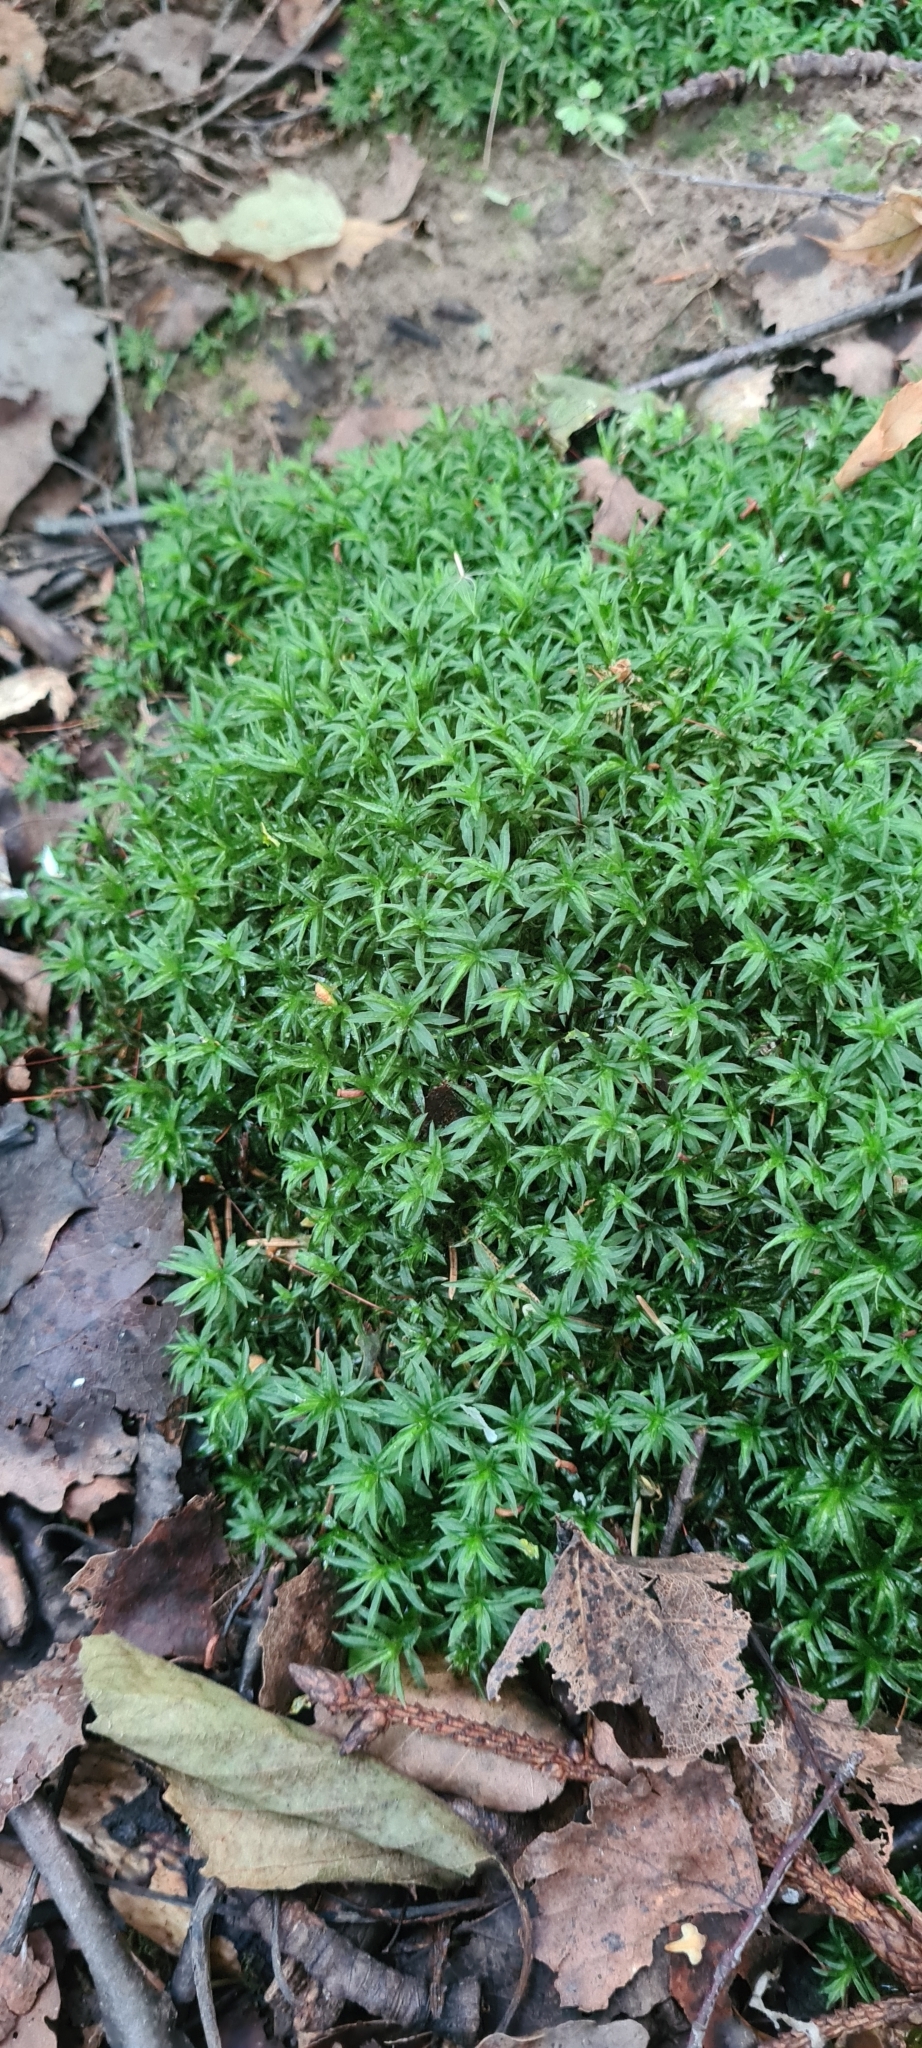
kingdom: Plantae
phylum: Bryophyta
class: Polytrichopsida
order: Polytrichales
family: Polytrichaceae
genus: Atrichum
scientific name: Atrichum undulatum
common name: Common smoothcap
